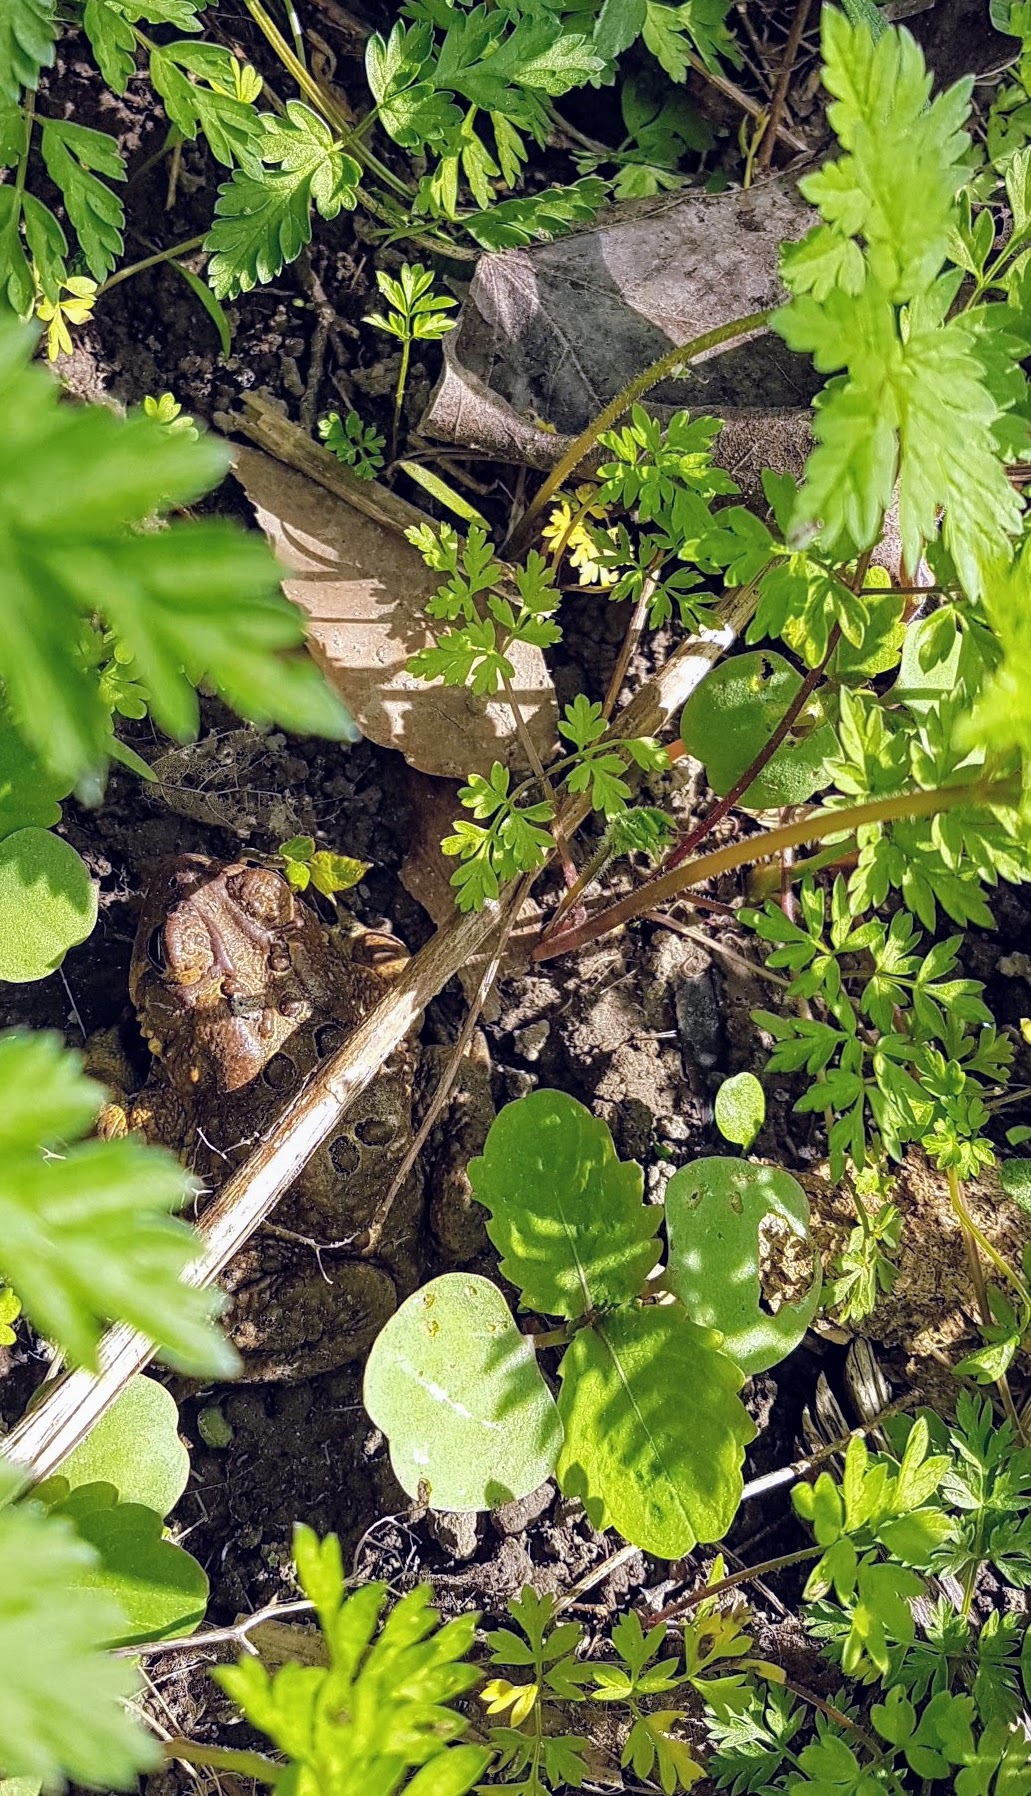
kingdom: Animalia
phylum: Chordata
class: Amphibia
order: Anura
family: Bufonidae
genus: Anaxyrus
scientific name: Anaxyrus americanus
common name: American toad
